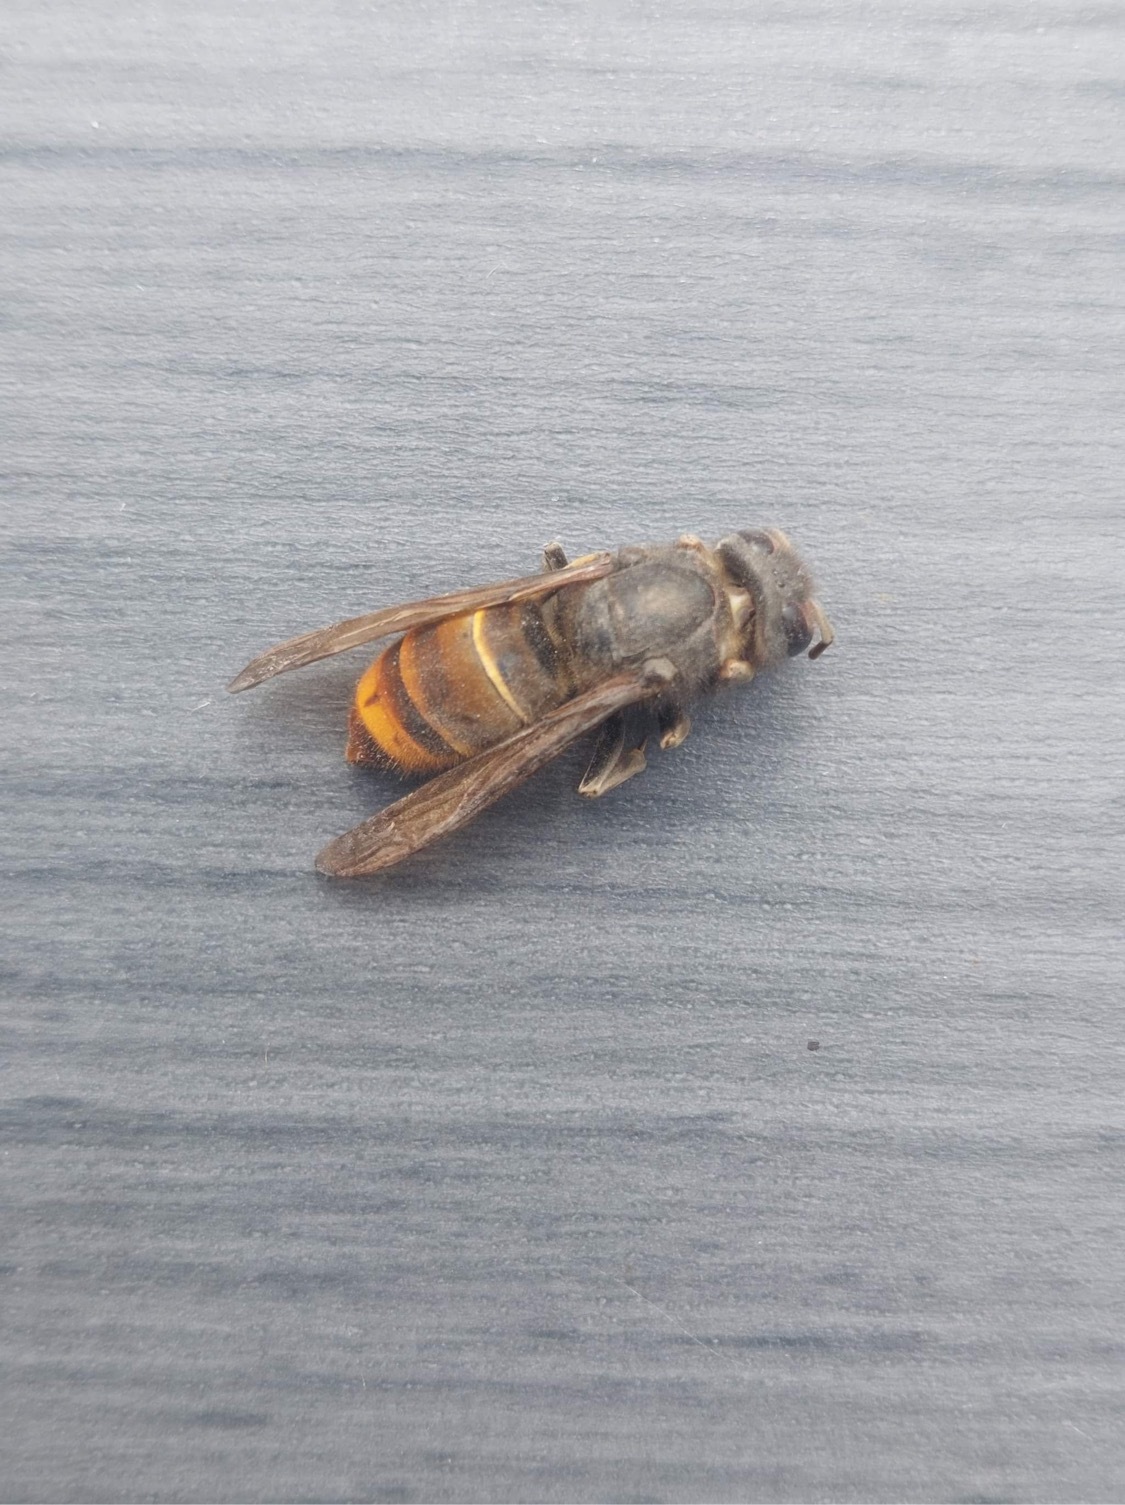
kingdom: Animalia
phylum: Arthropoda
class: Insecta
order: Hymenoptera
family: Vespidae
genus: Vespa
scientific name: Vespa velutina
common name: Asian hornet
